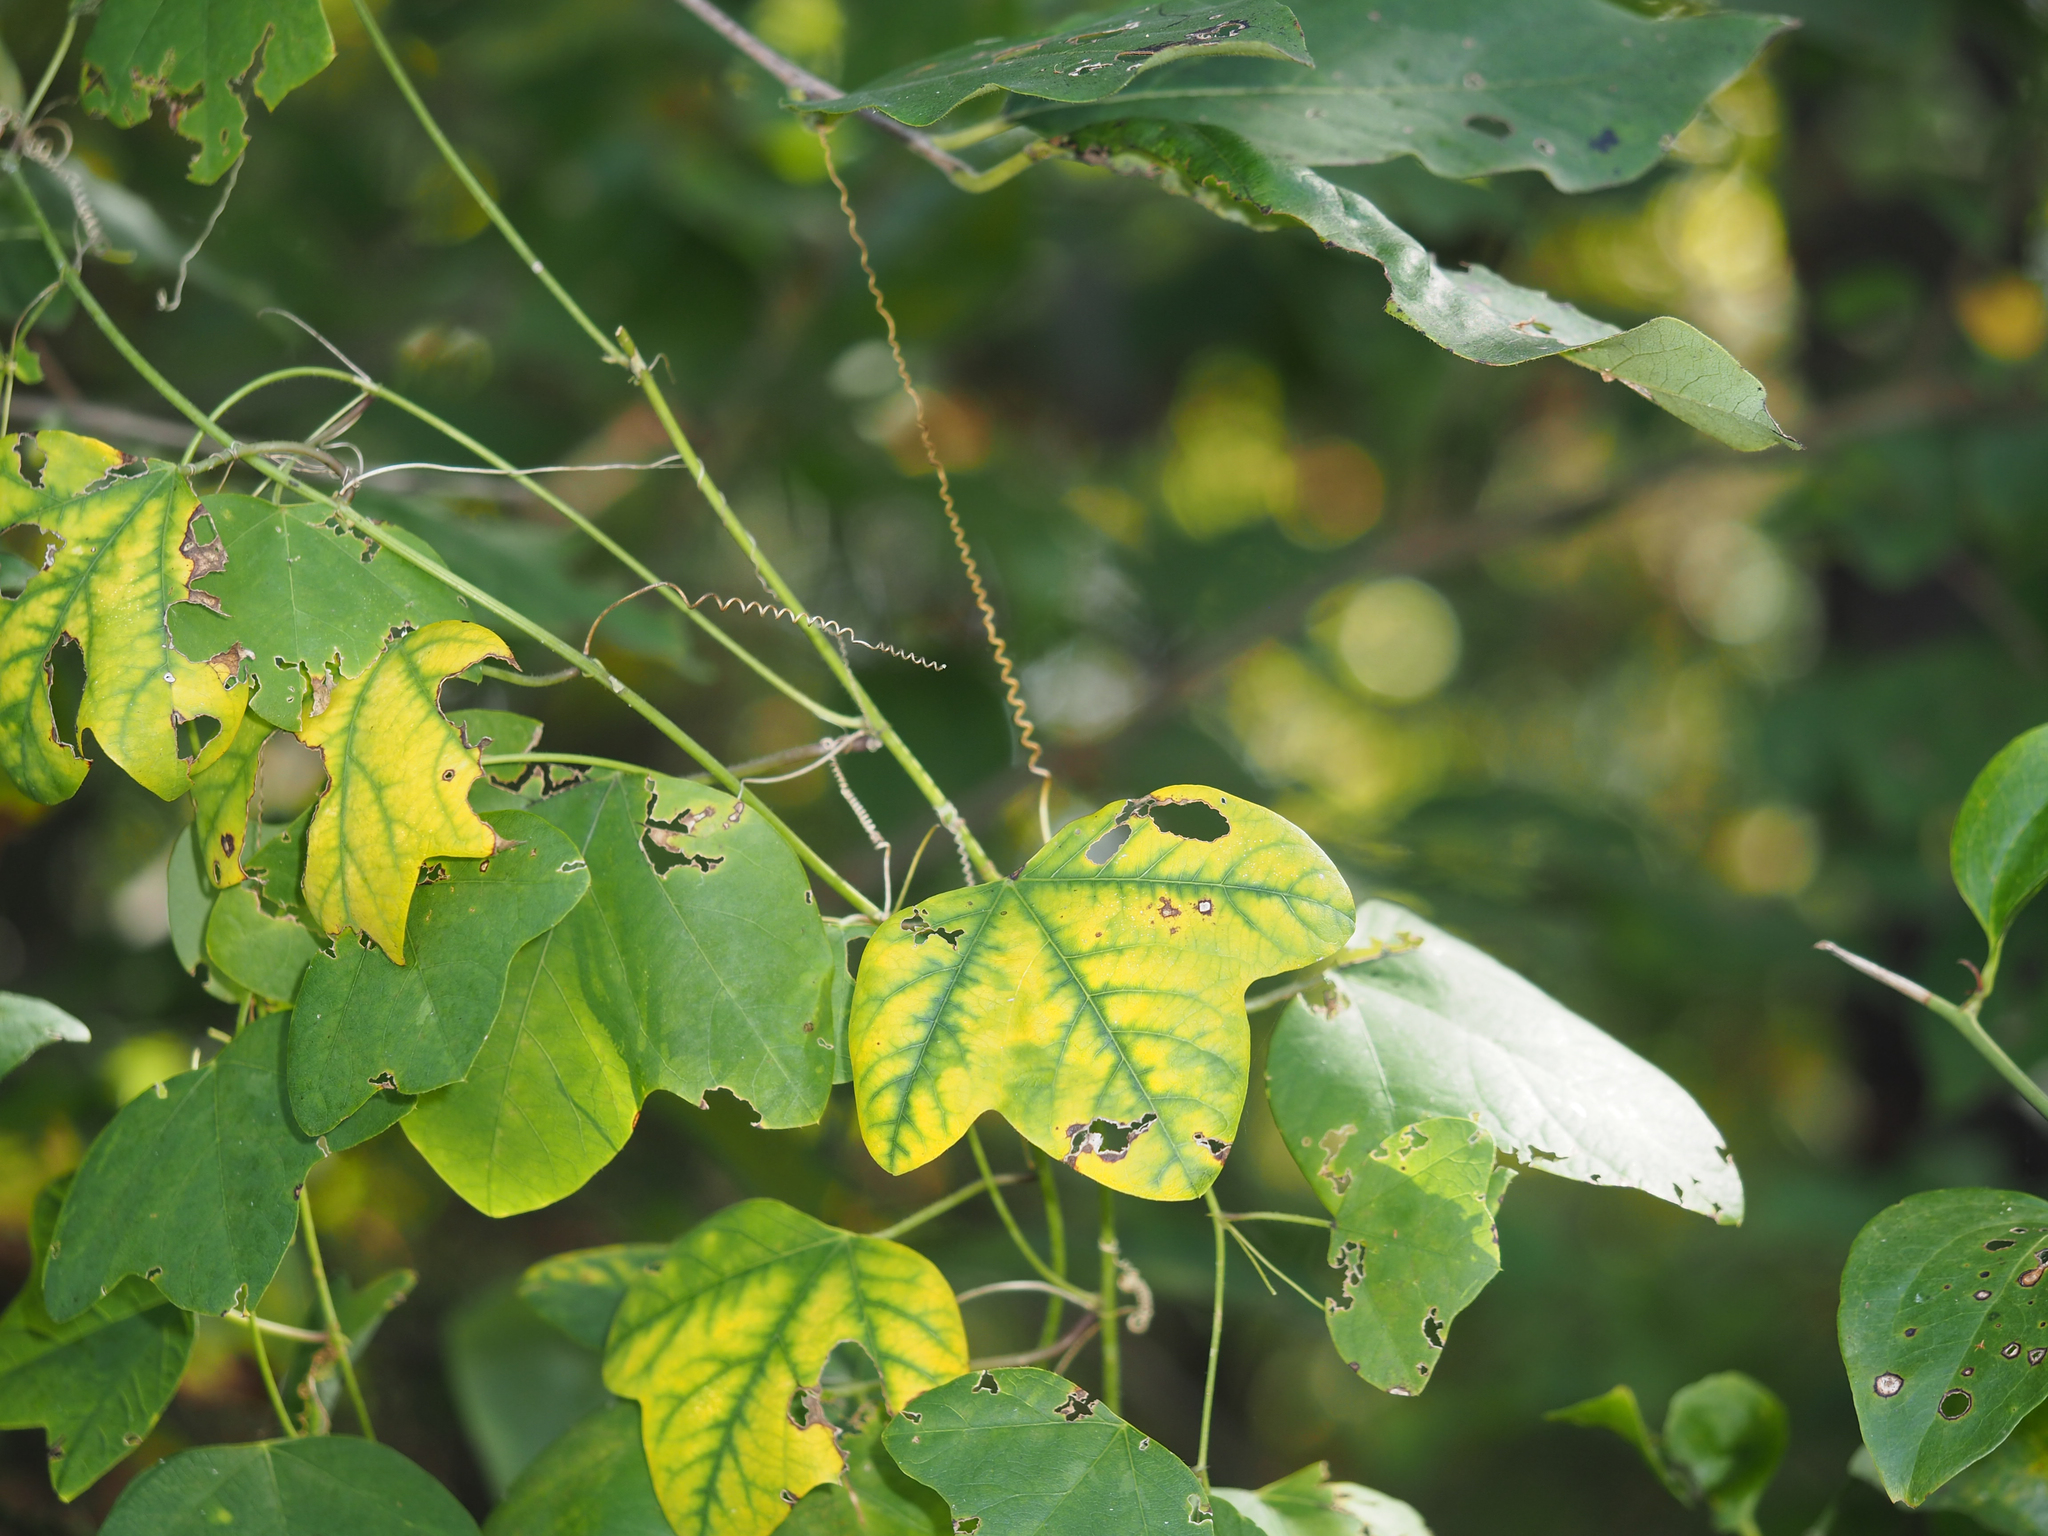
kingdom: Plantae
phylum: Tracheophyta
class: Magnoliopsida
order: Malpighiales
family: Passifloraceae
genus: Passiflora
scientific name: Passiflora lutea
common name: Yellow passionflower
